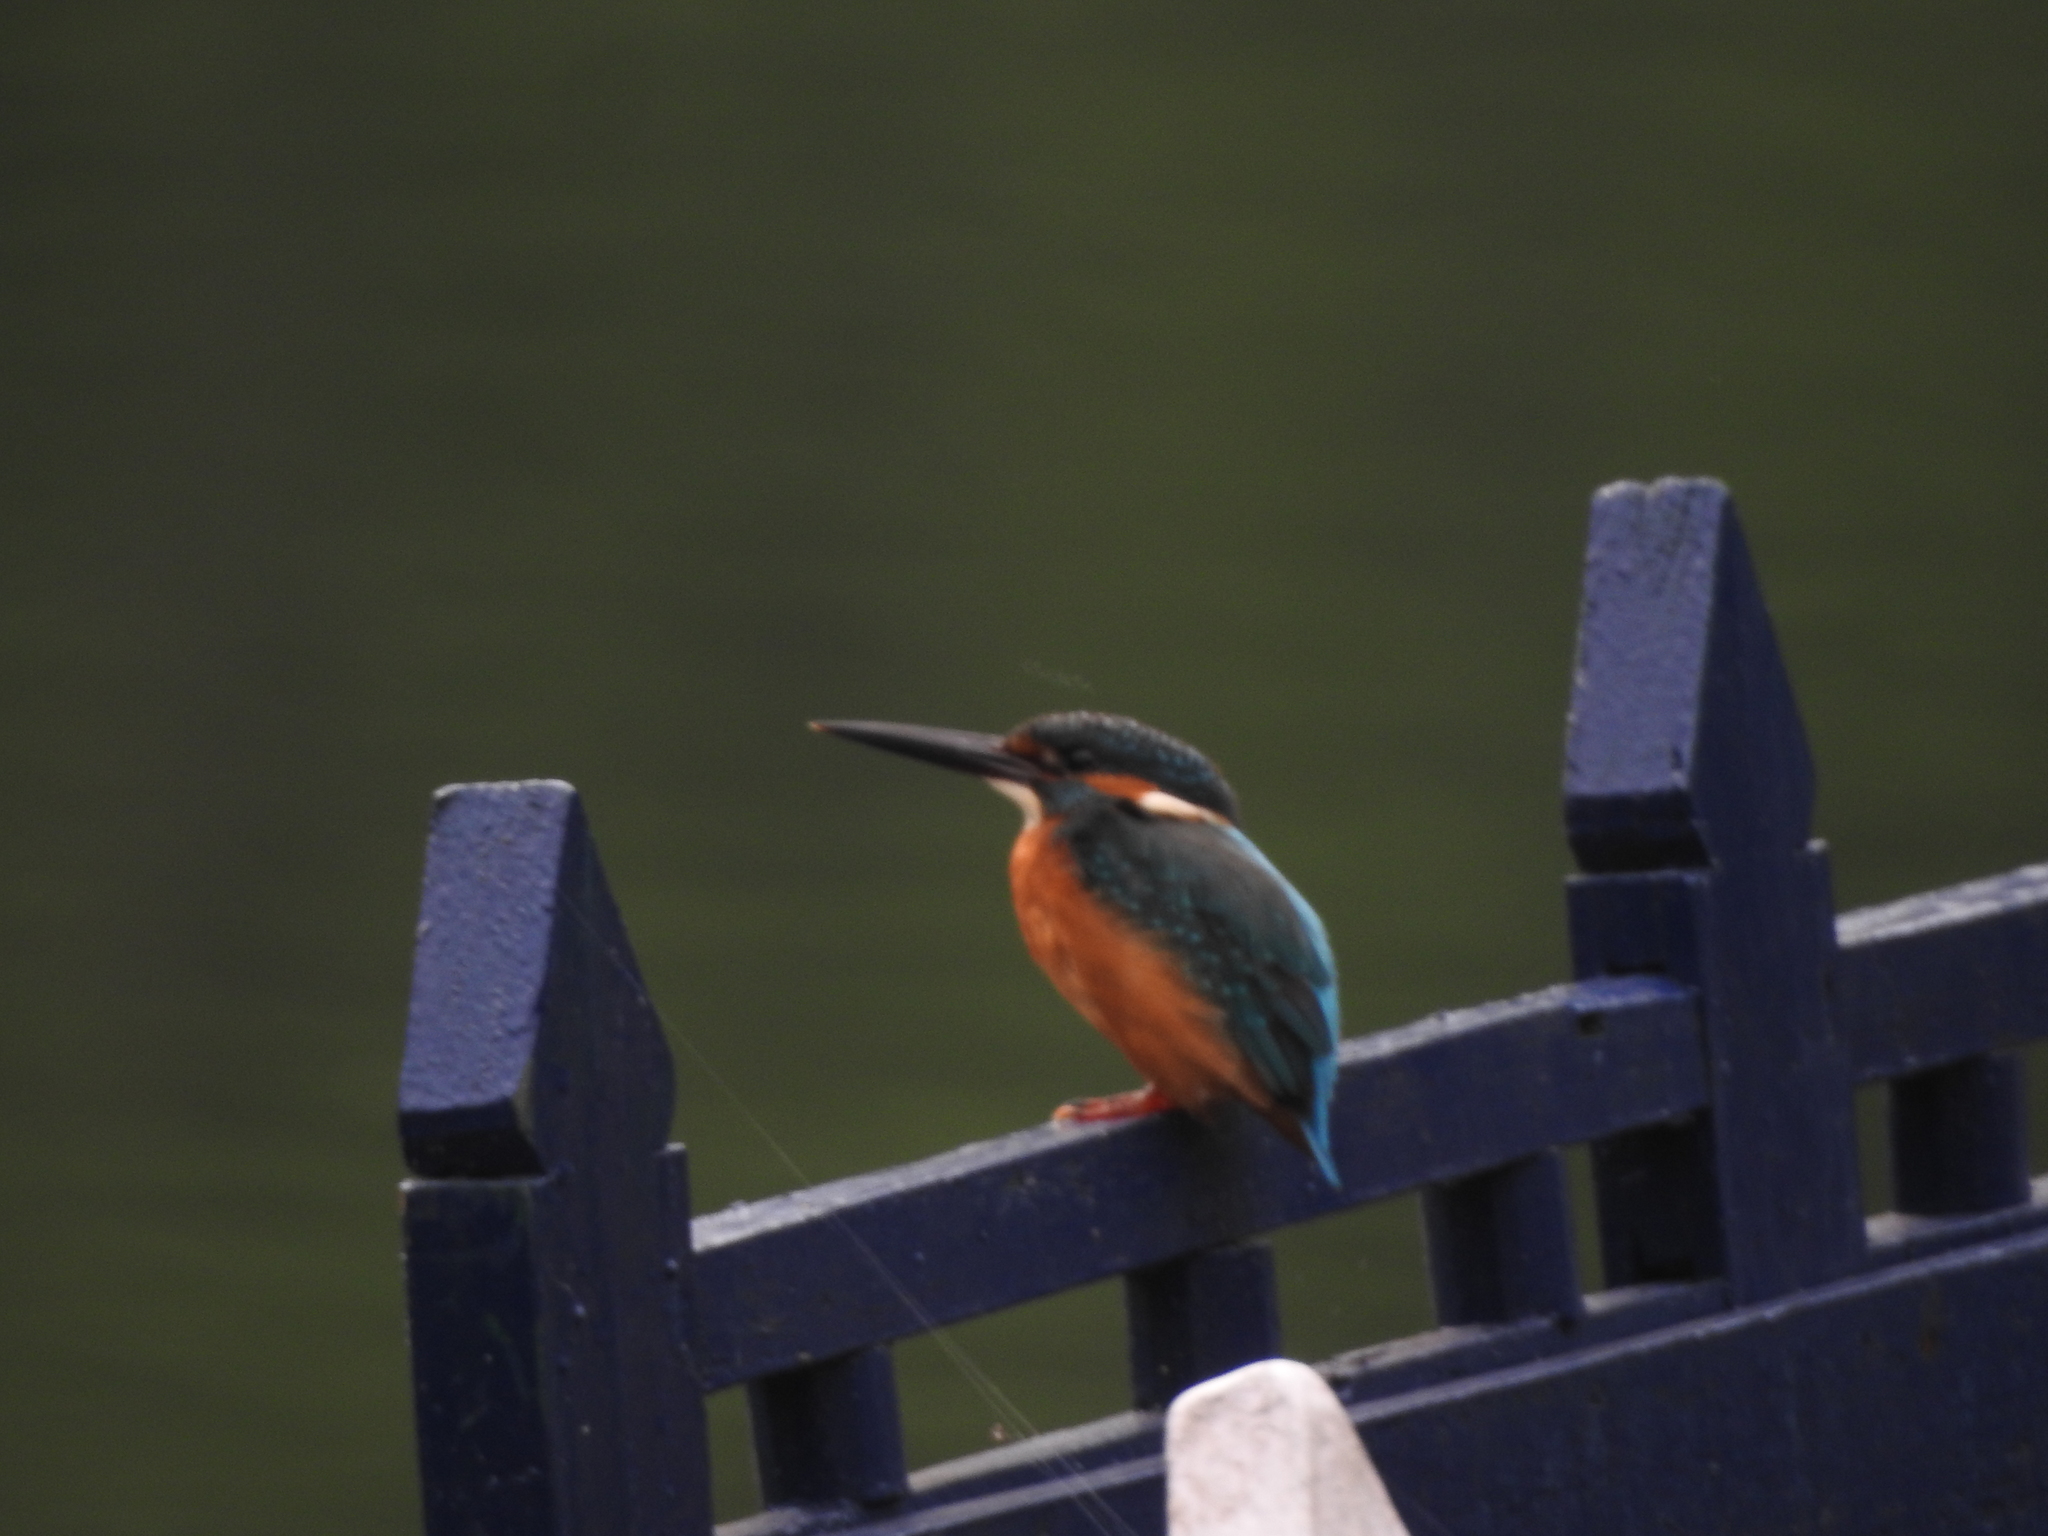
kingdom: Animalia
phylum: Chordata
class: Aves
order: Coraciiformes
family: Alcedinidae
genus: Alcedo
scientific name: Alcedo atthis
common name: Common kingfisher
